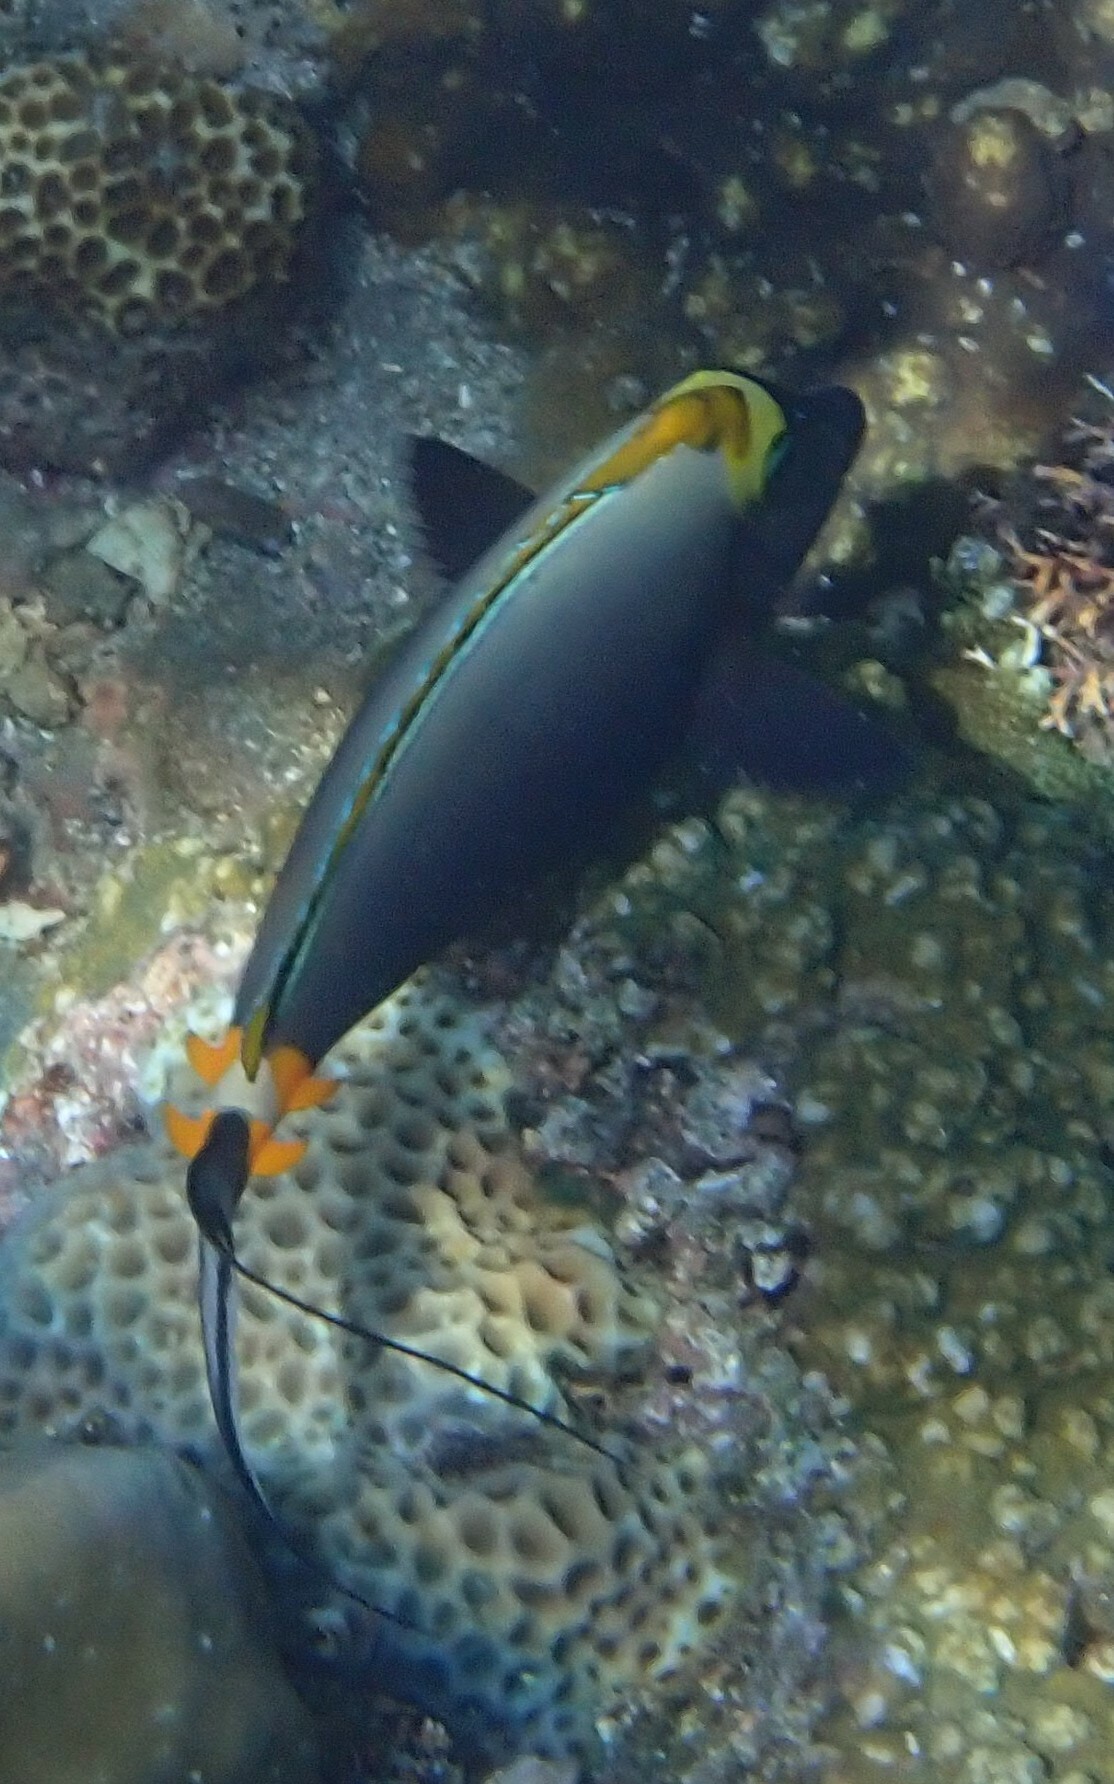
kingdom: Animalia
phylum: Chordata
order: Perciformes
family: Acanthuridae
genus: Naso
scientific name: Naso elegans
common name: Orangespine unicornfish
